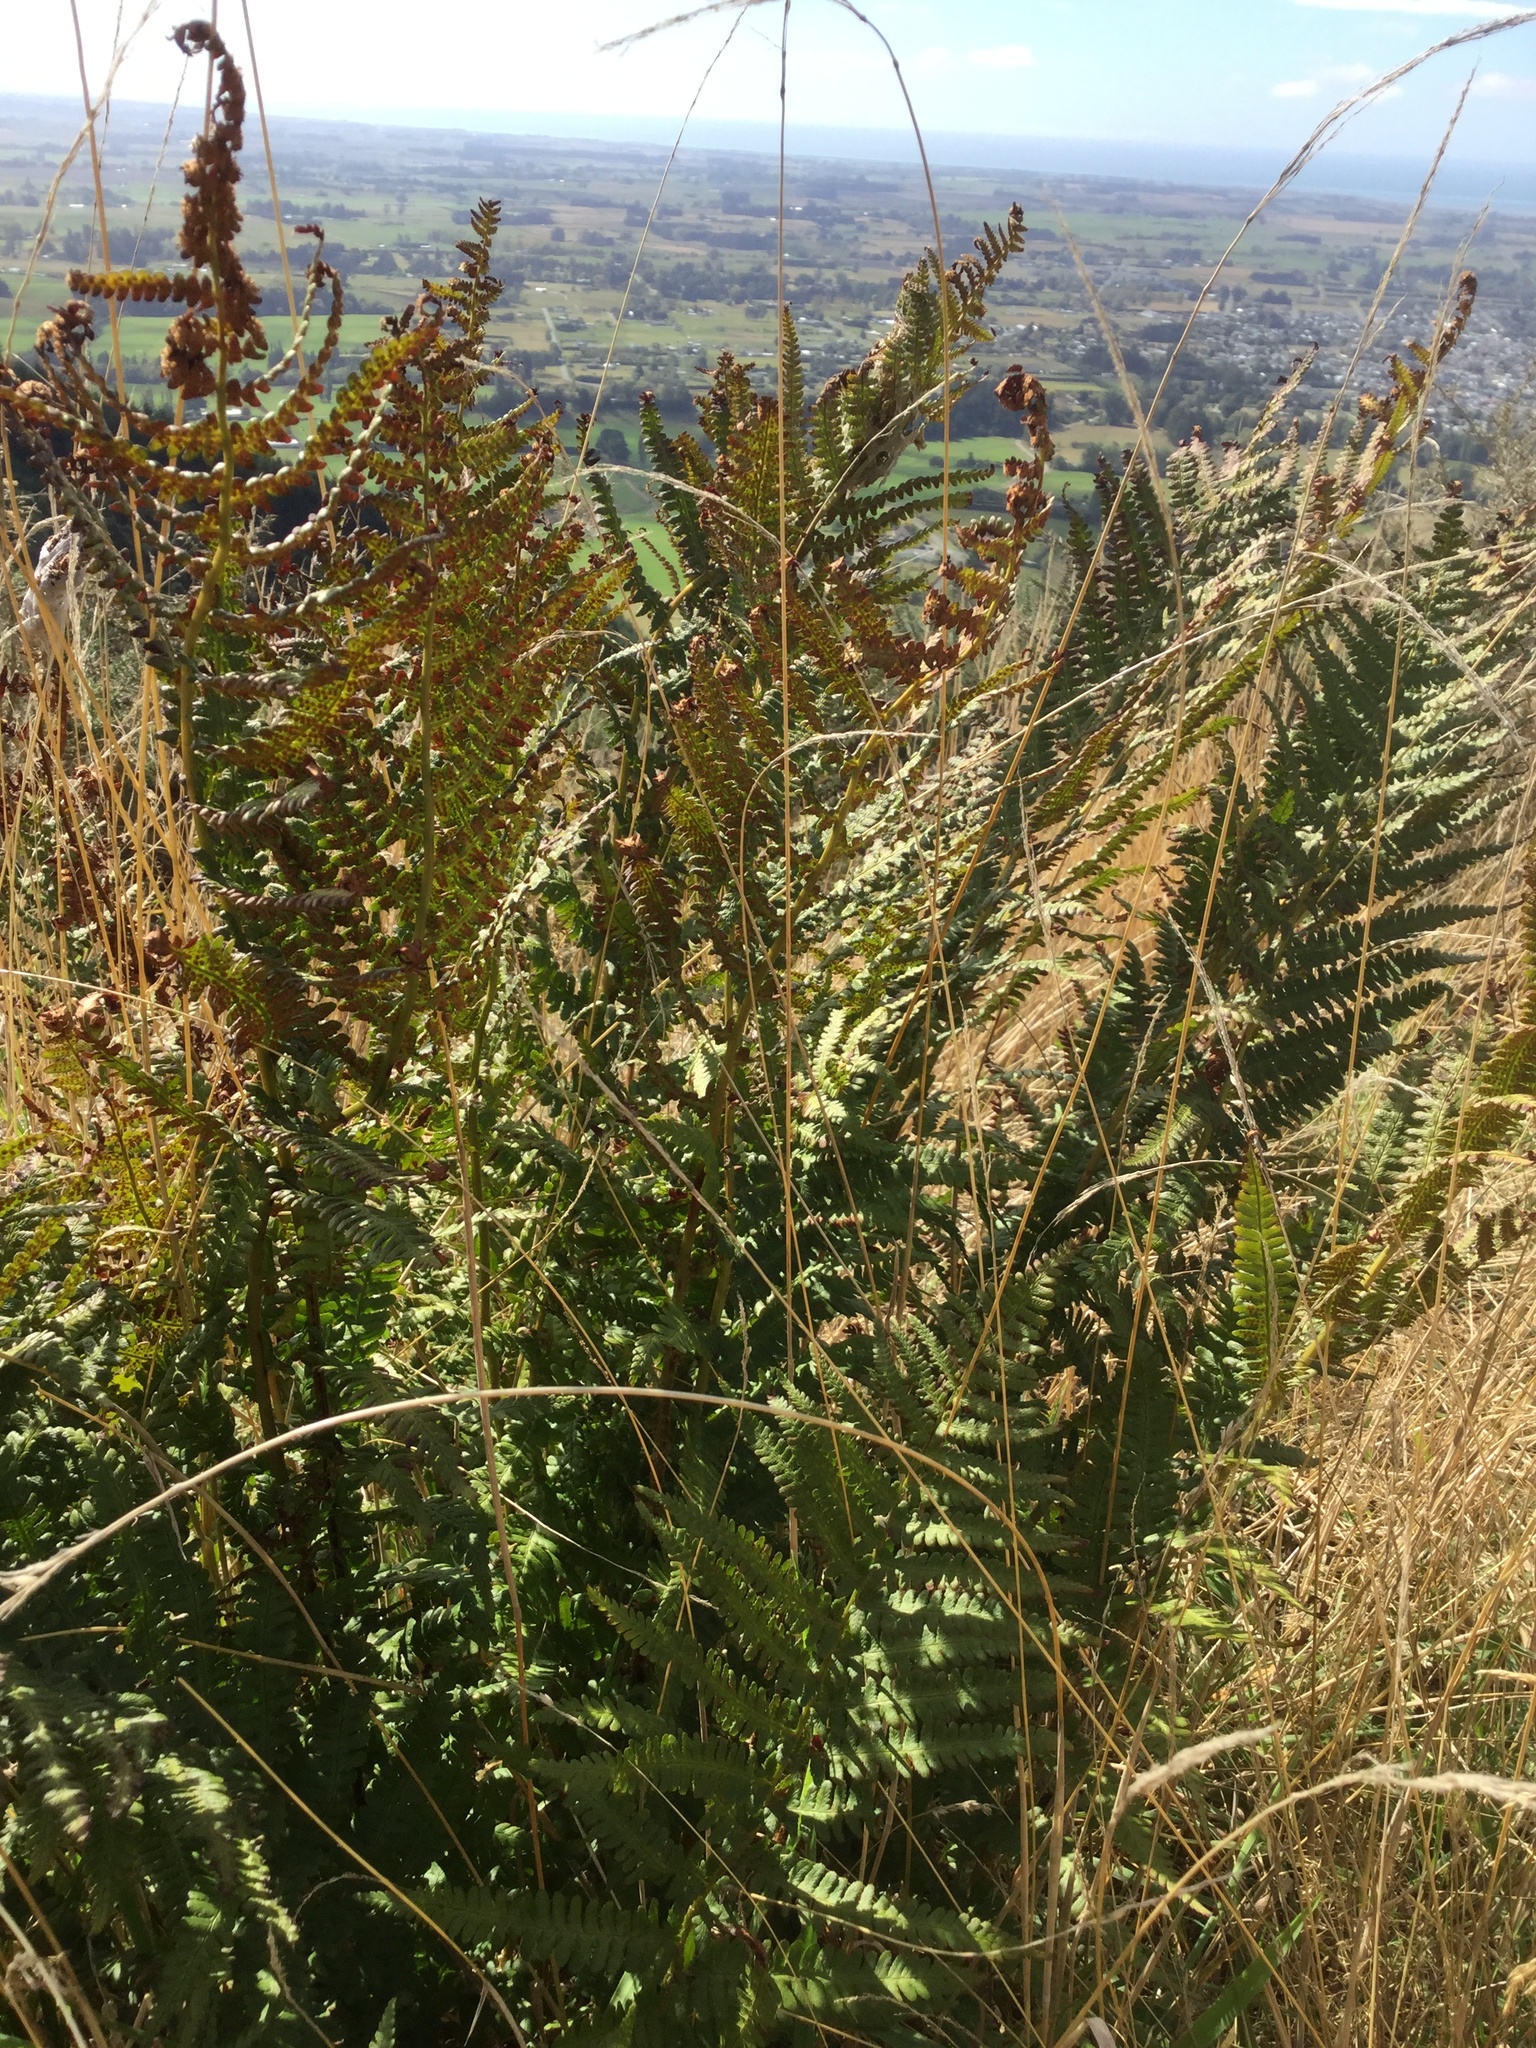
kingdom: Plantae
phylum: Tracheophyta
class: Polypodiopsida
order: Polypodiales
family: Dryopteridaceae
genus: Dryopteris
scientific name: Dryopteris filix-mas
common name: Male fern
